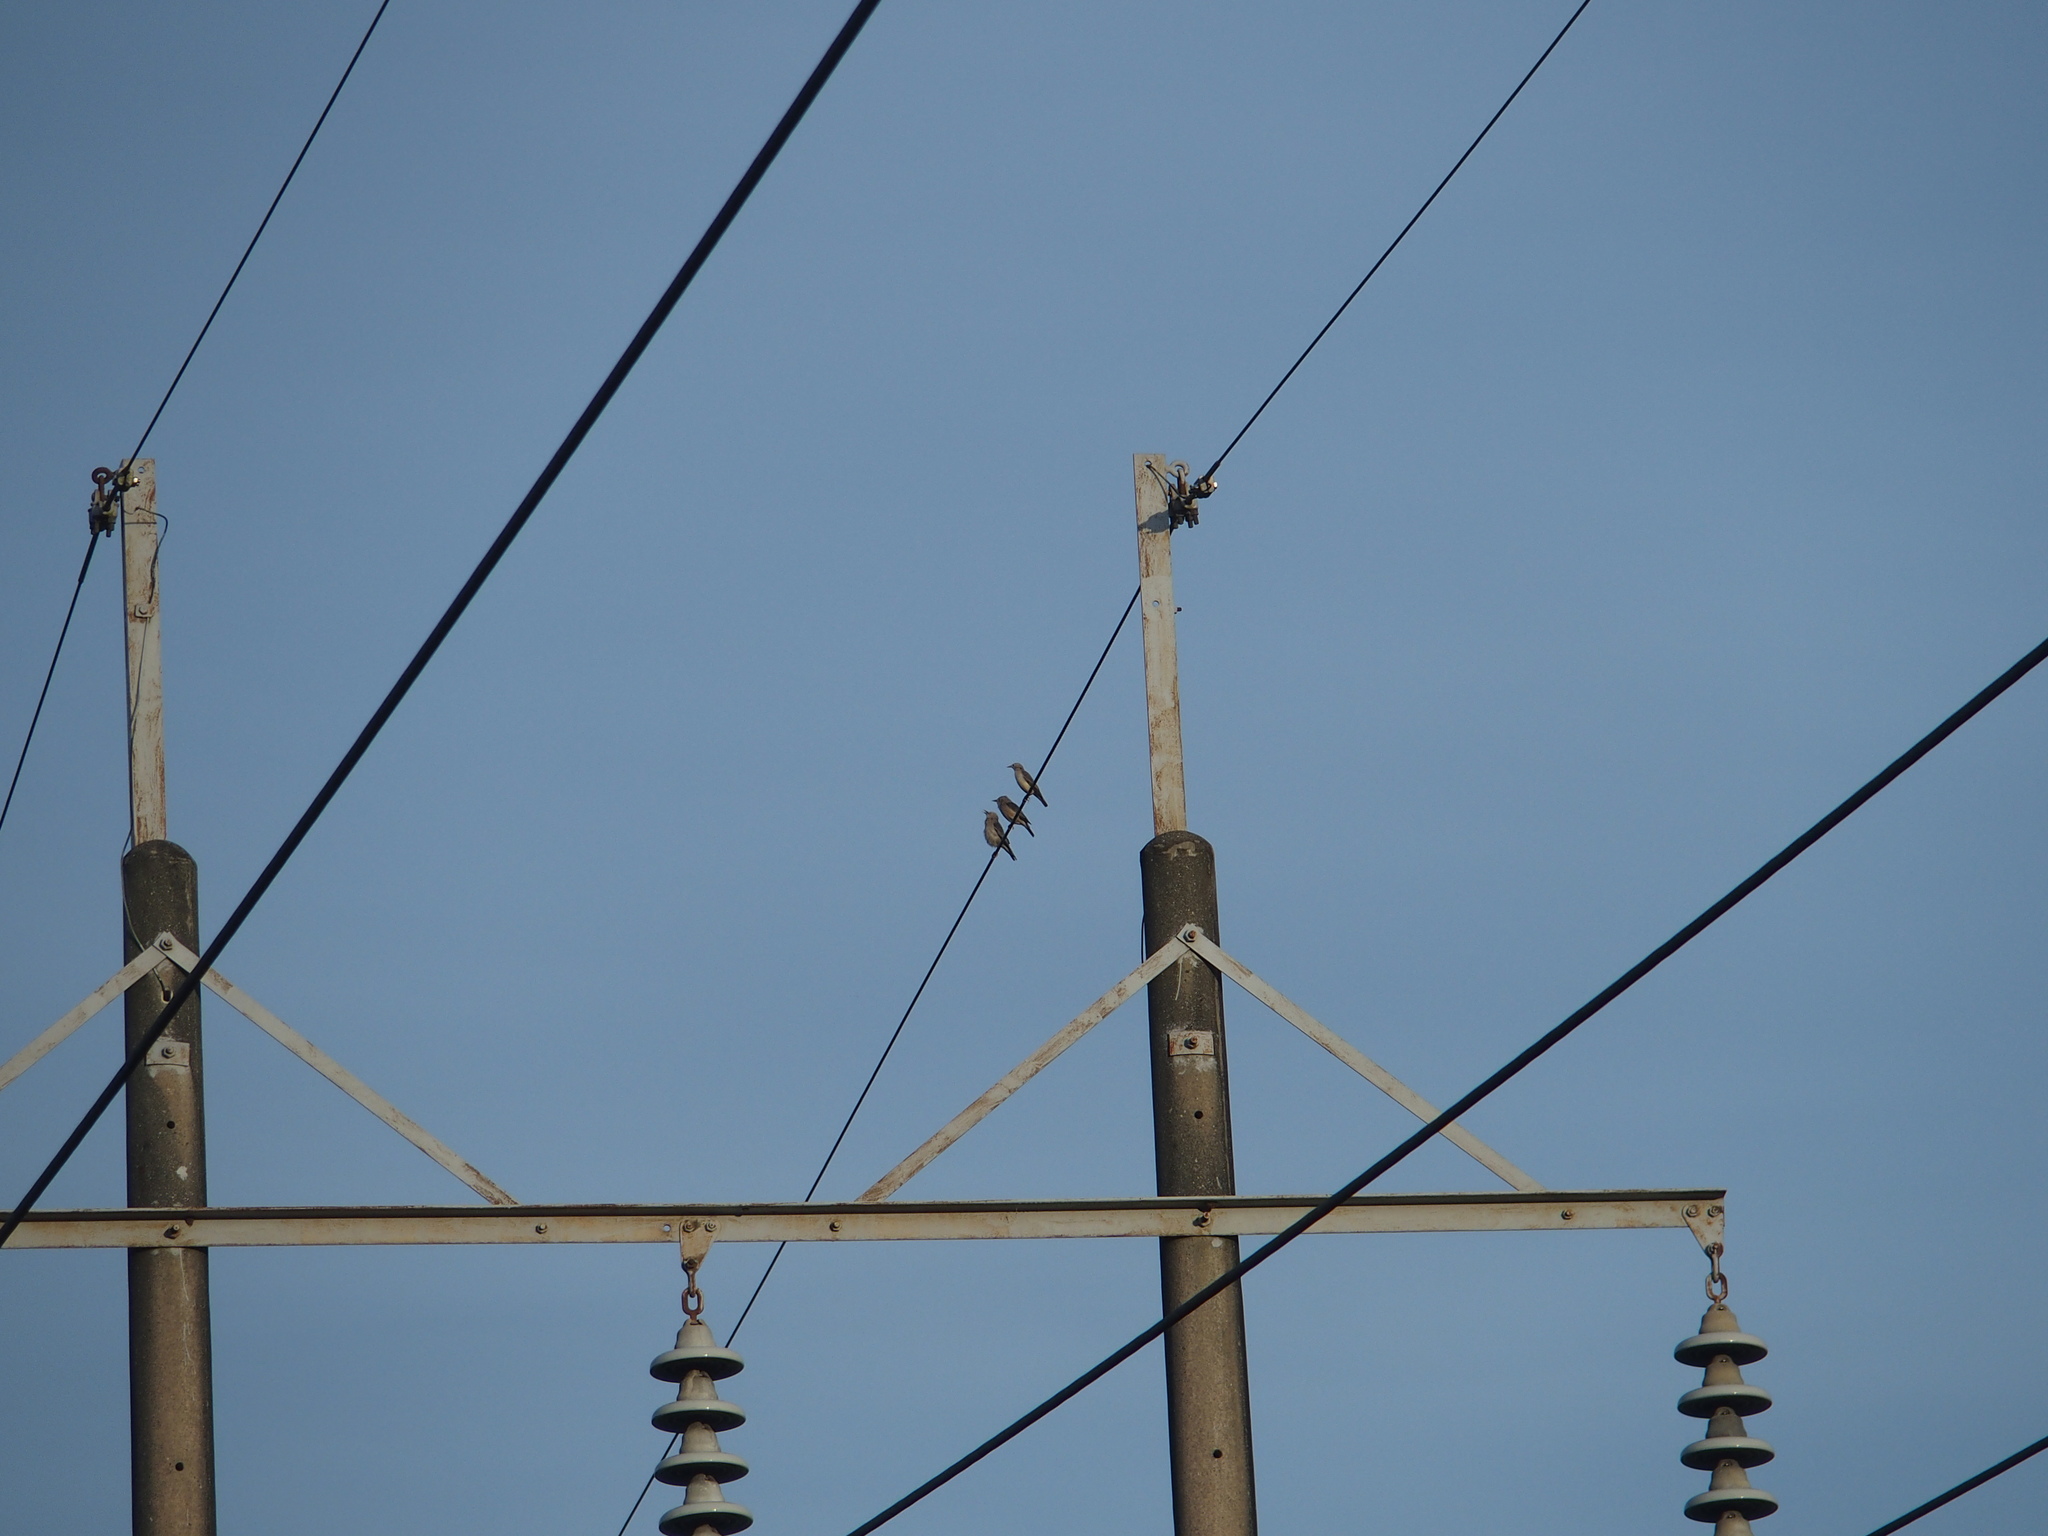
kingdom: Animalia
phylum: Chordata
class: Aves
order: Passeriformes
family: Sturnidae
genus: Sturnia
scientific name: Sturnia malabarica
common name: Chestnut-tailed starling
